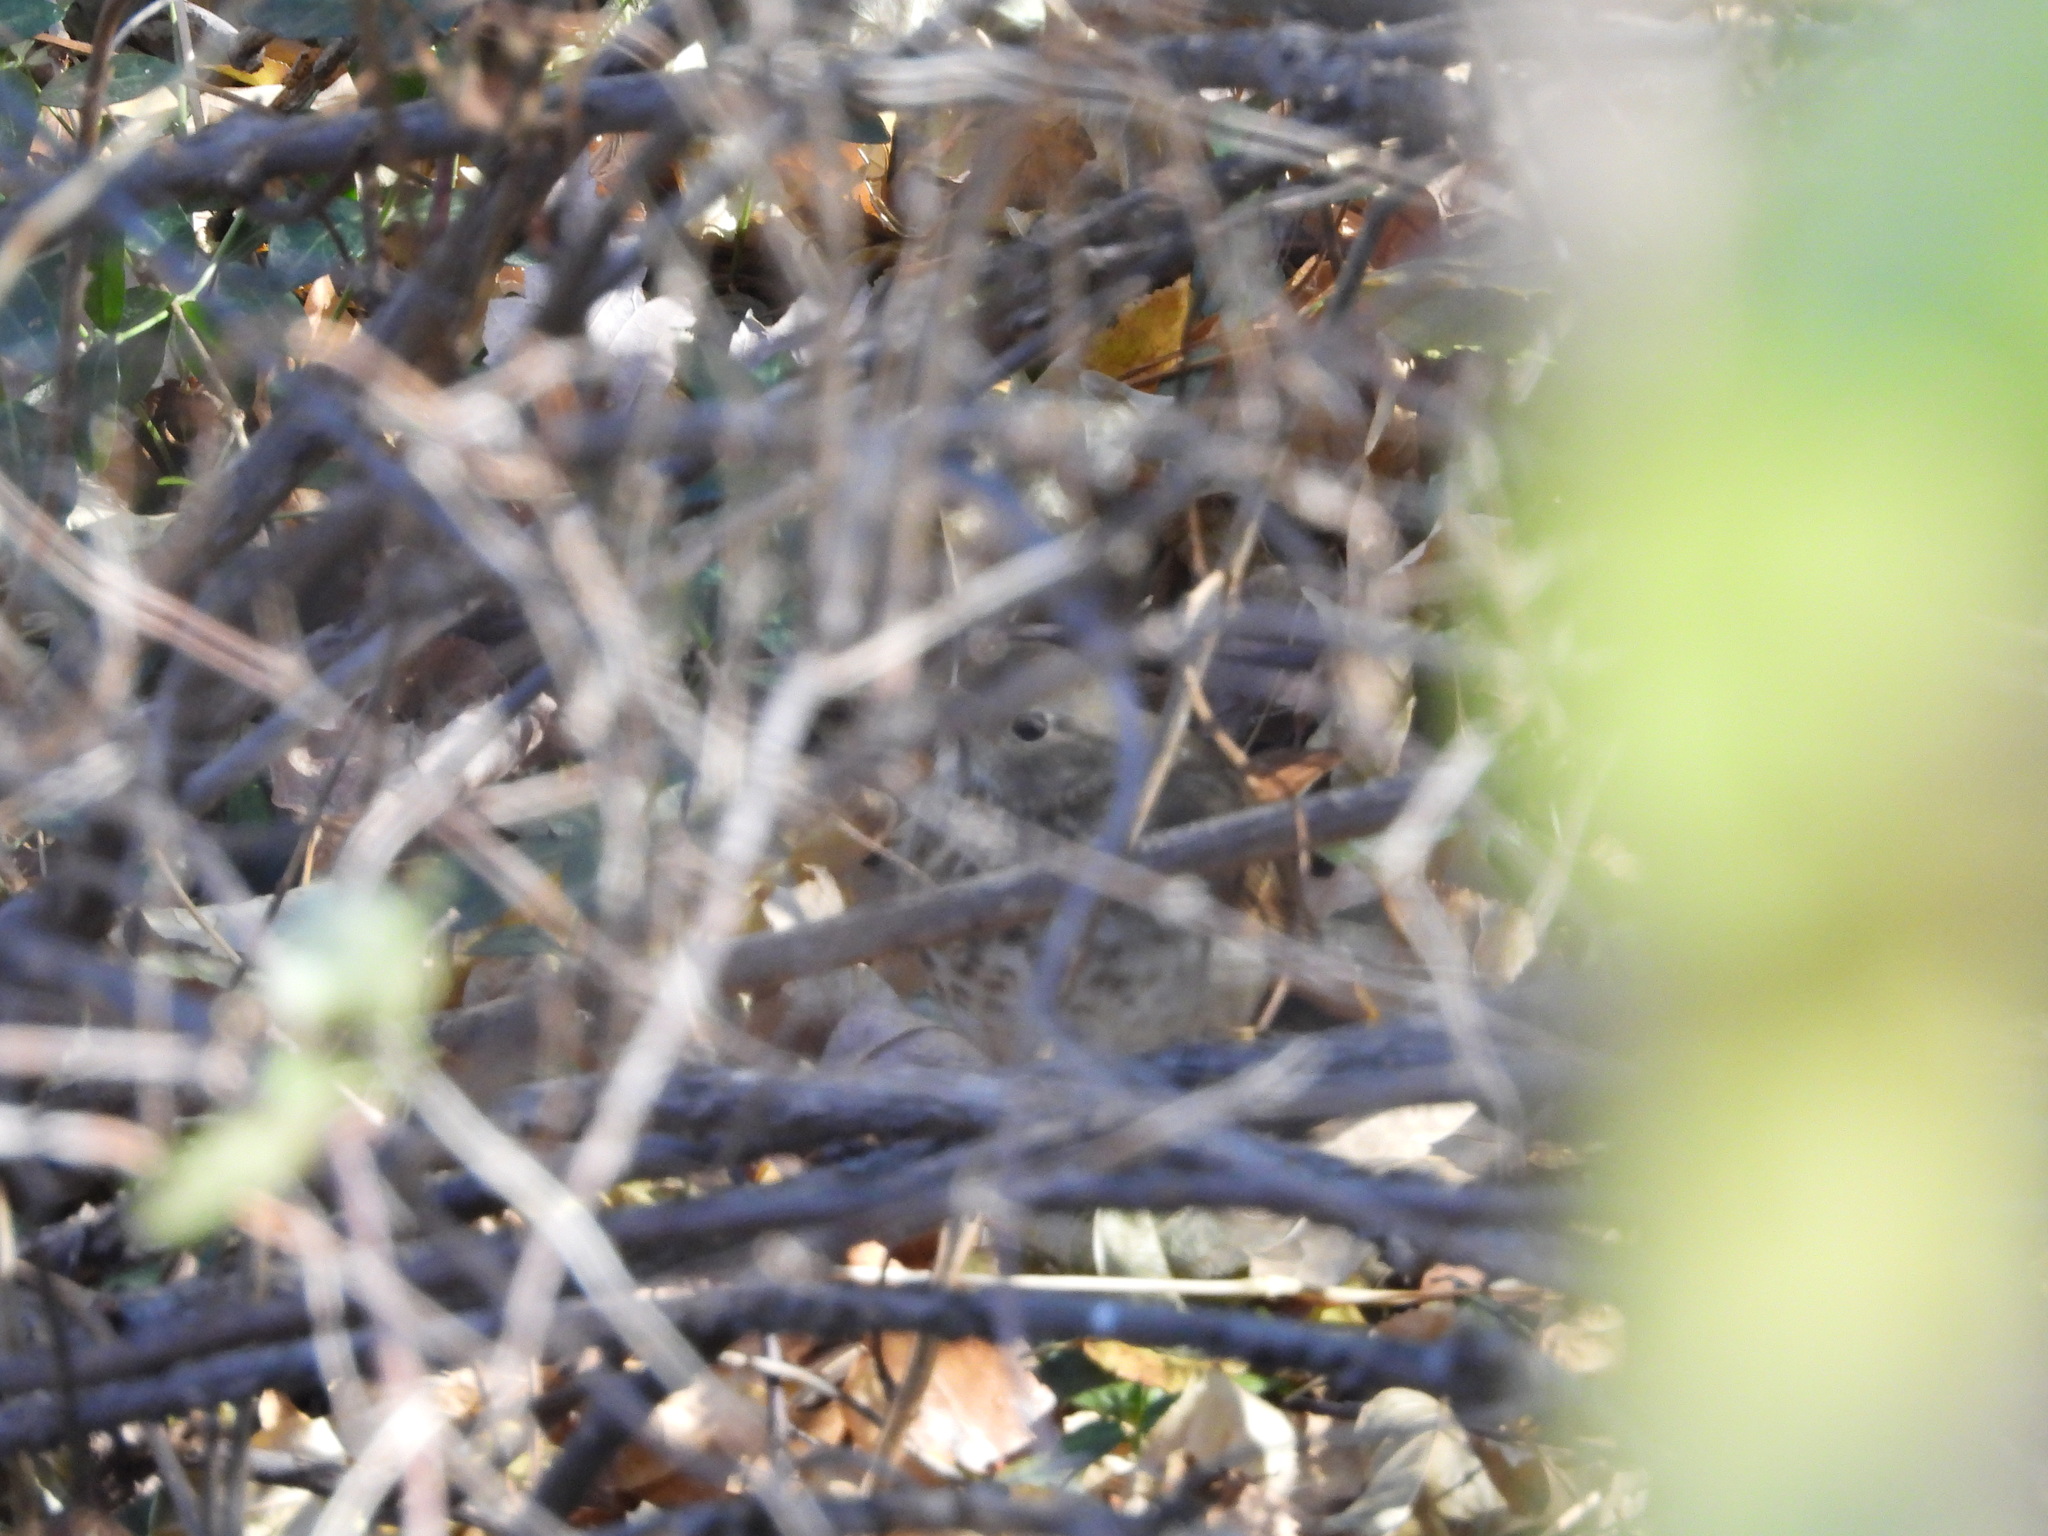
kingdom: Animalia
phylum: Chordata
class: Aves
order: Passeriformes
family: Turdidae
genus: Catharus
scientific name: Catharus guttatus
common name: Hermit thrush
